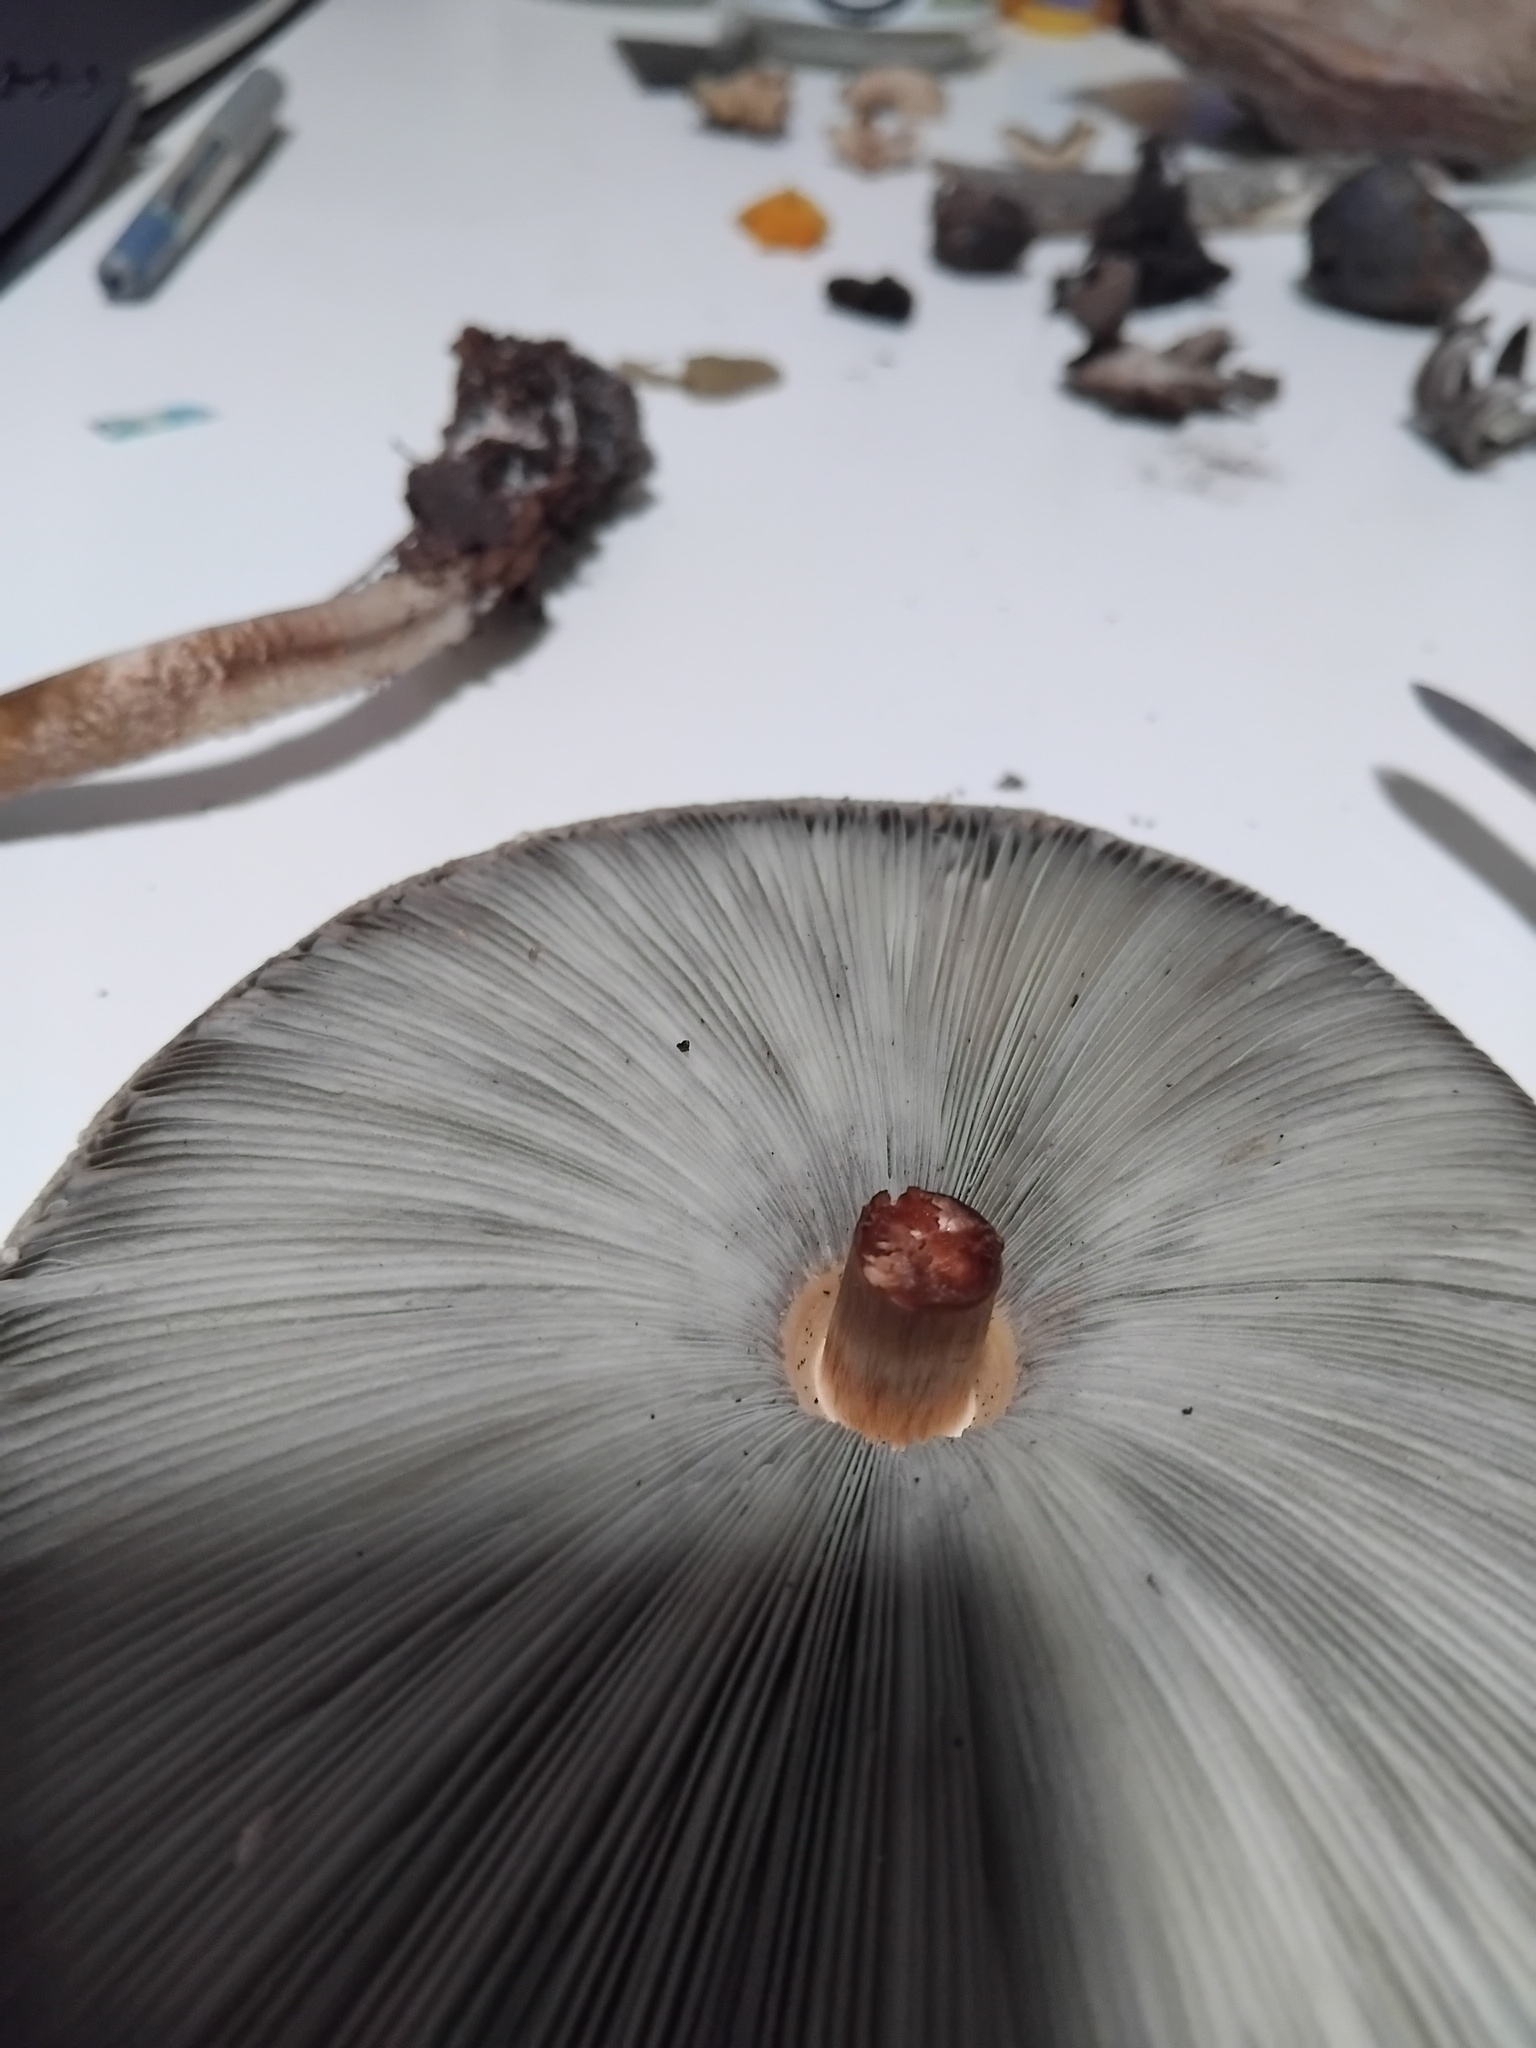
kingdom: Fungi
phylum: Basidiomycota
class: Agaricomycetes
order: Agaricales
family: Agaricaceae
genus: Chlorophyllum
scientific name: Chlorophyllum molybdites
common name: False parasol
